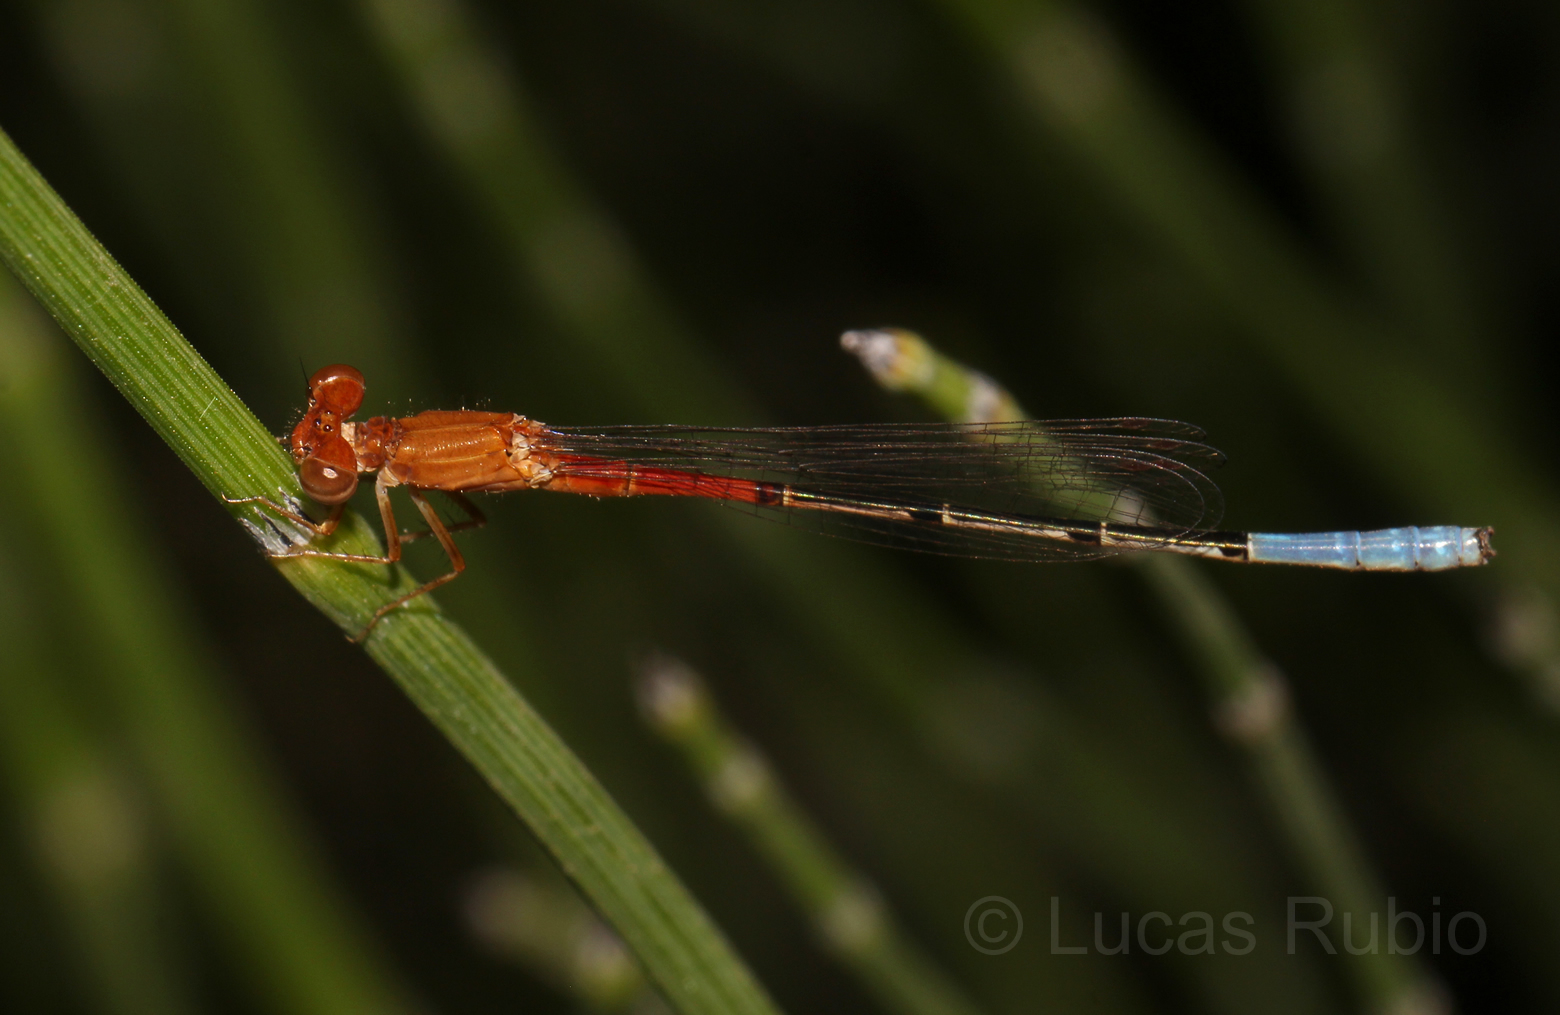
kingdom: Animalia
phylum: Arthropoda
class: Insecta
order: Odonata
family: Coenagrionidae
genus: Andinagrion
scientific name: Andinagrion garrisoni
